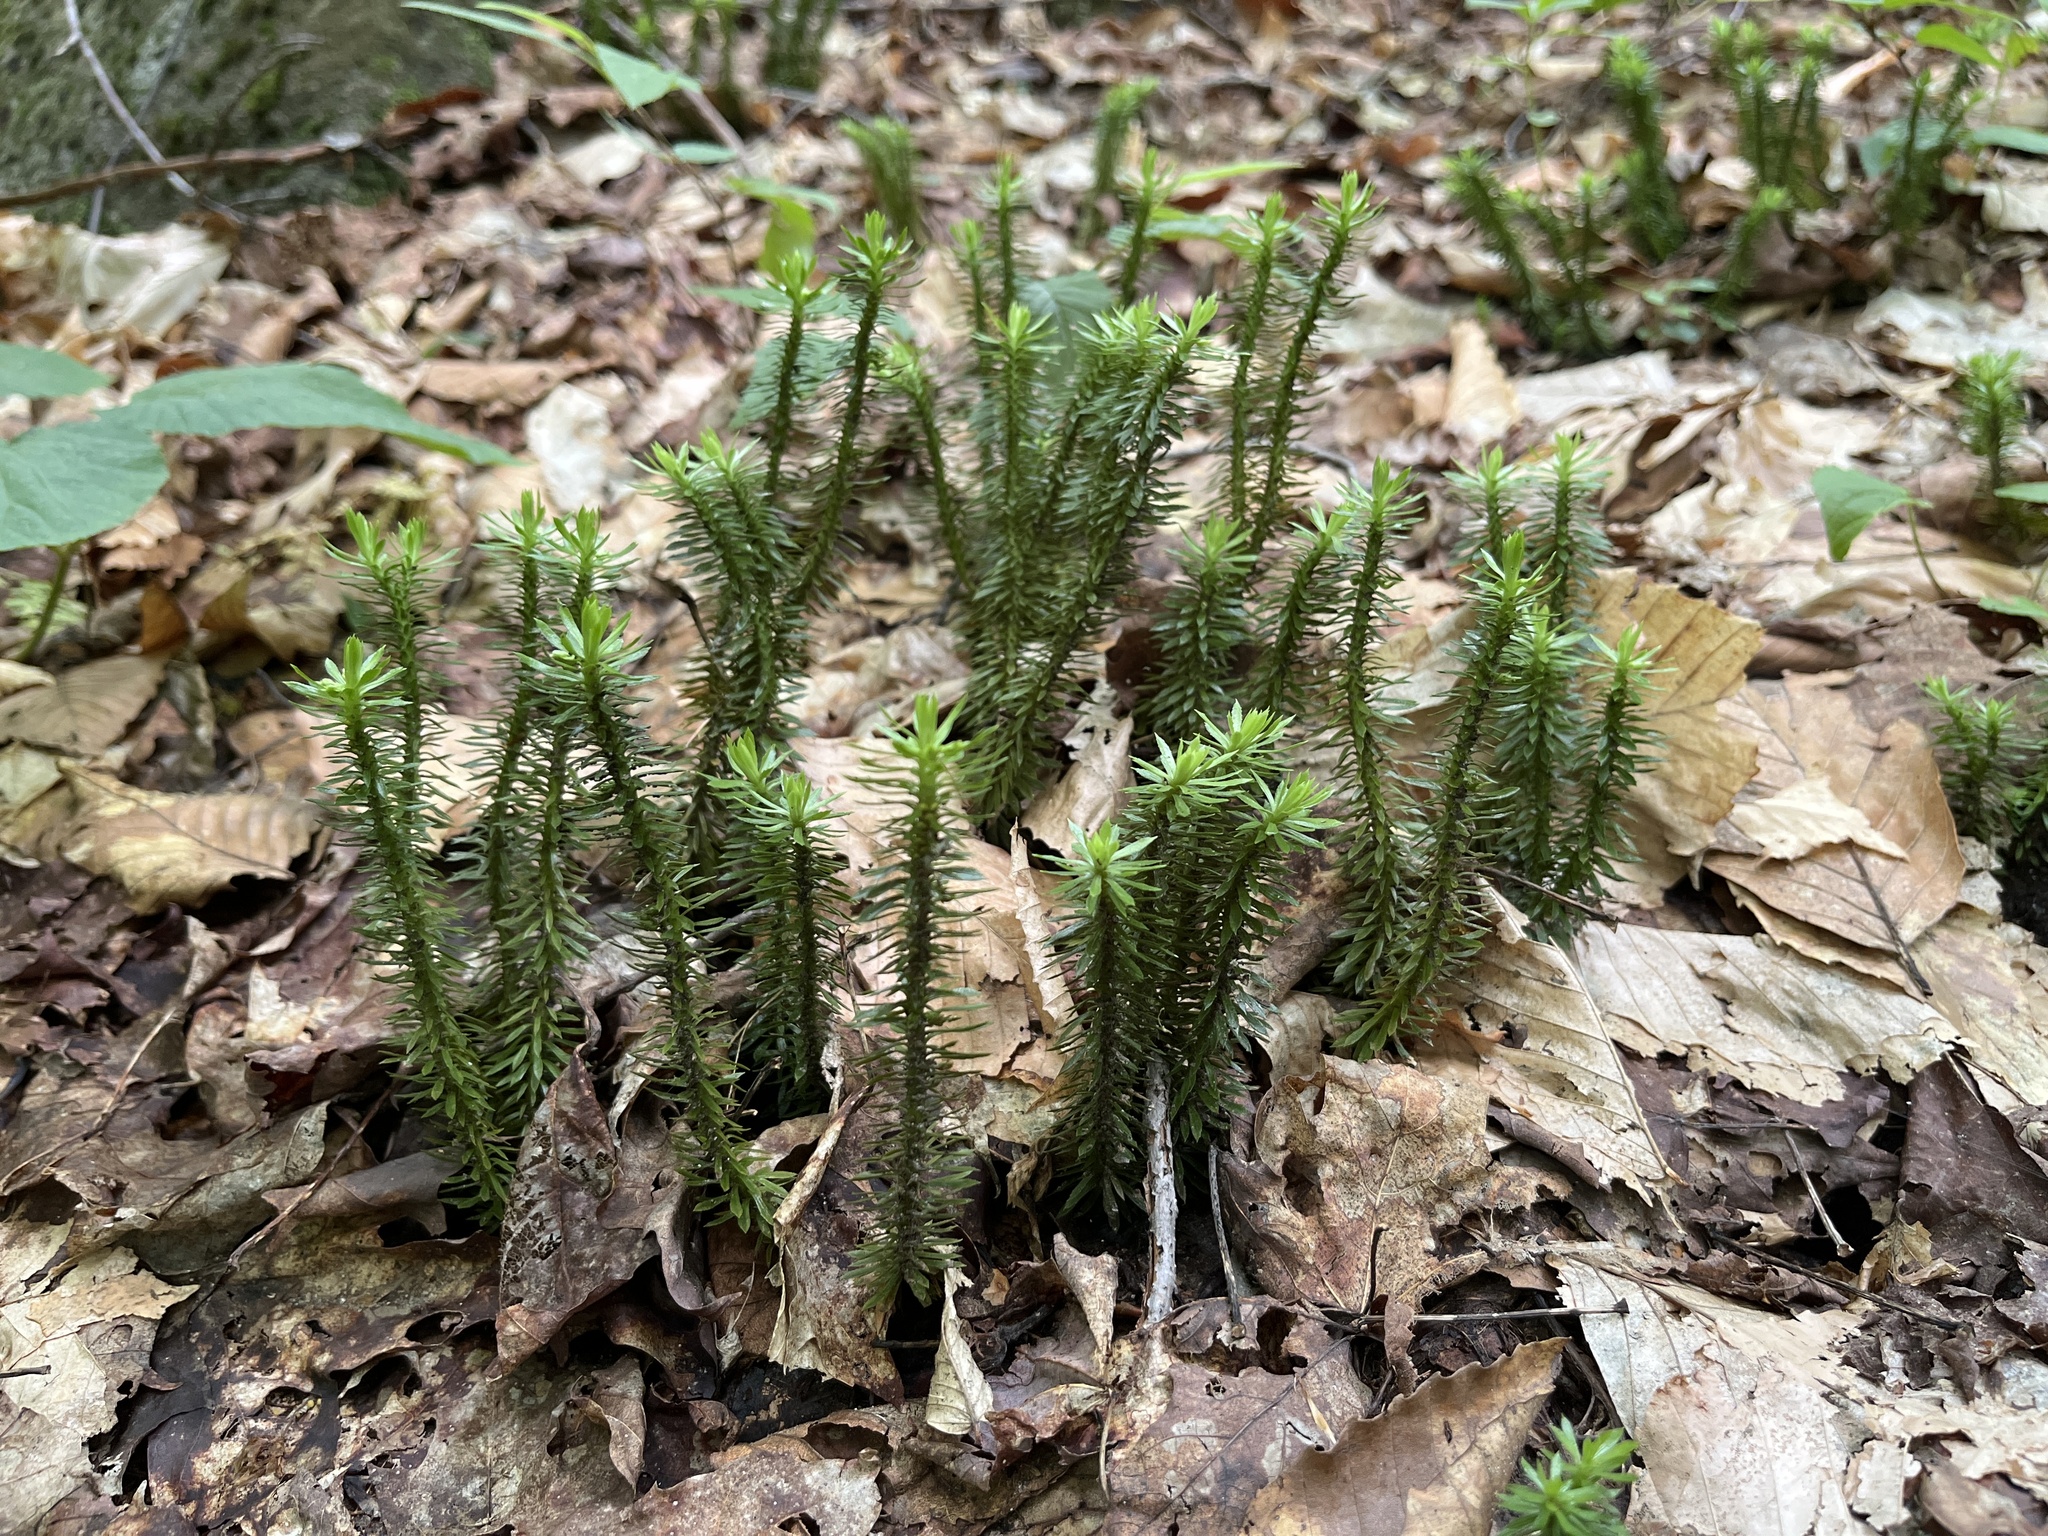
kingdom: Plantae
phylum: Tracheophyta
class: Lycopodiopsida
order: Lycopodiales
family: Lycopodiaceae
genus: Huperzia
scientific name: Huperzia lucidula
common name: Shining clubmoss
